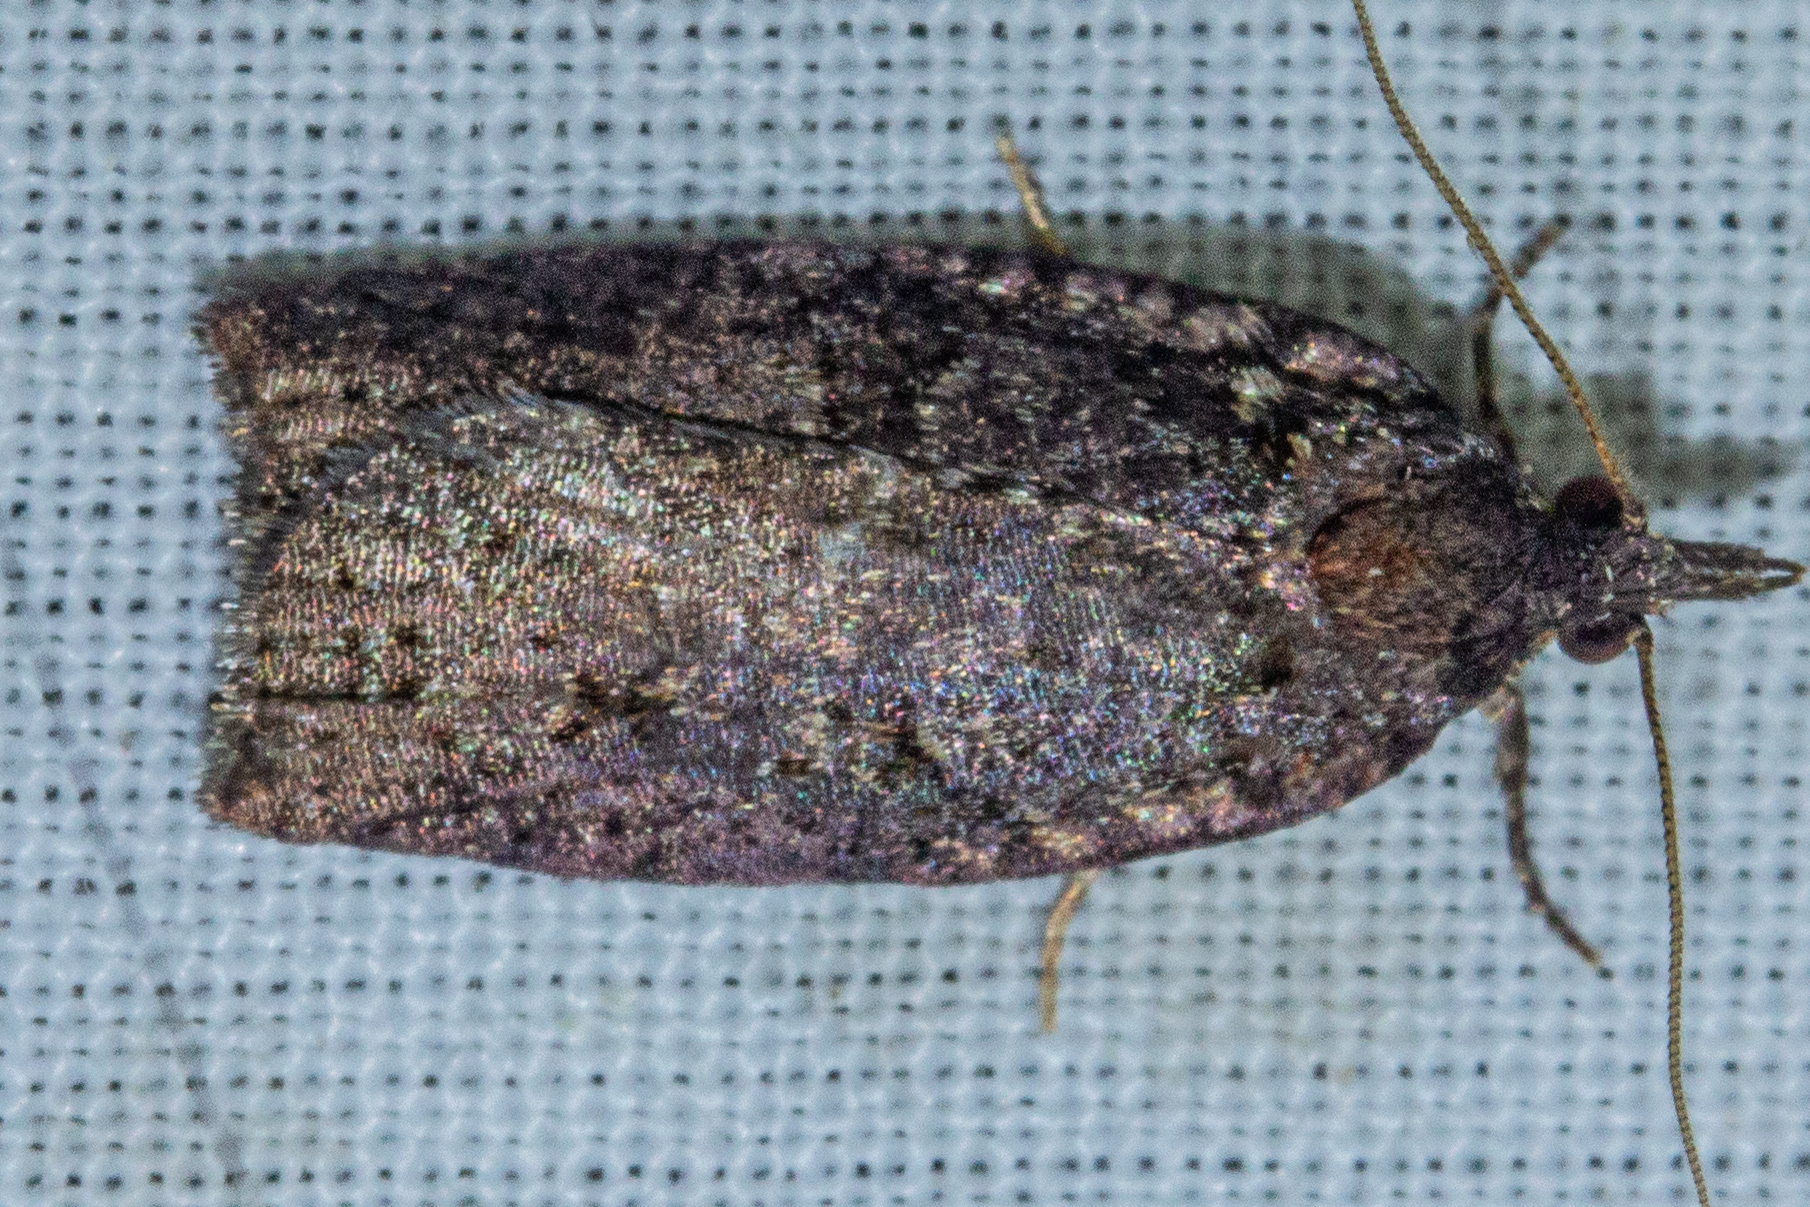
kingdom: Animalia
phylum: Arthropoda
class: Insecta
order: Lepidoptera
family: Tortricidae
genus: Ctenopseustis
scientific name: Ctenopseustis obliquana
